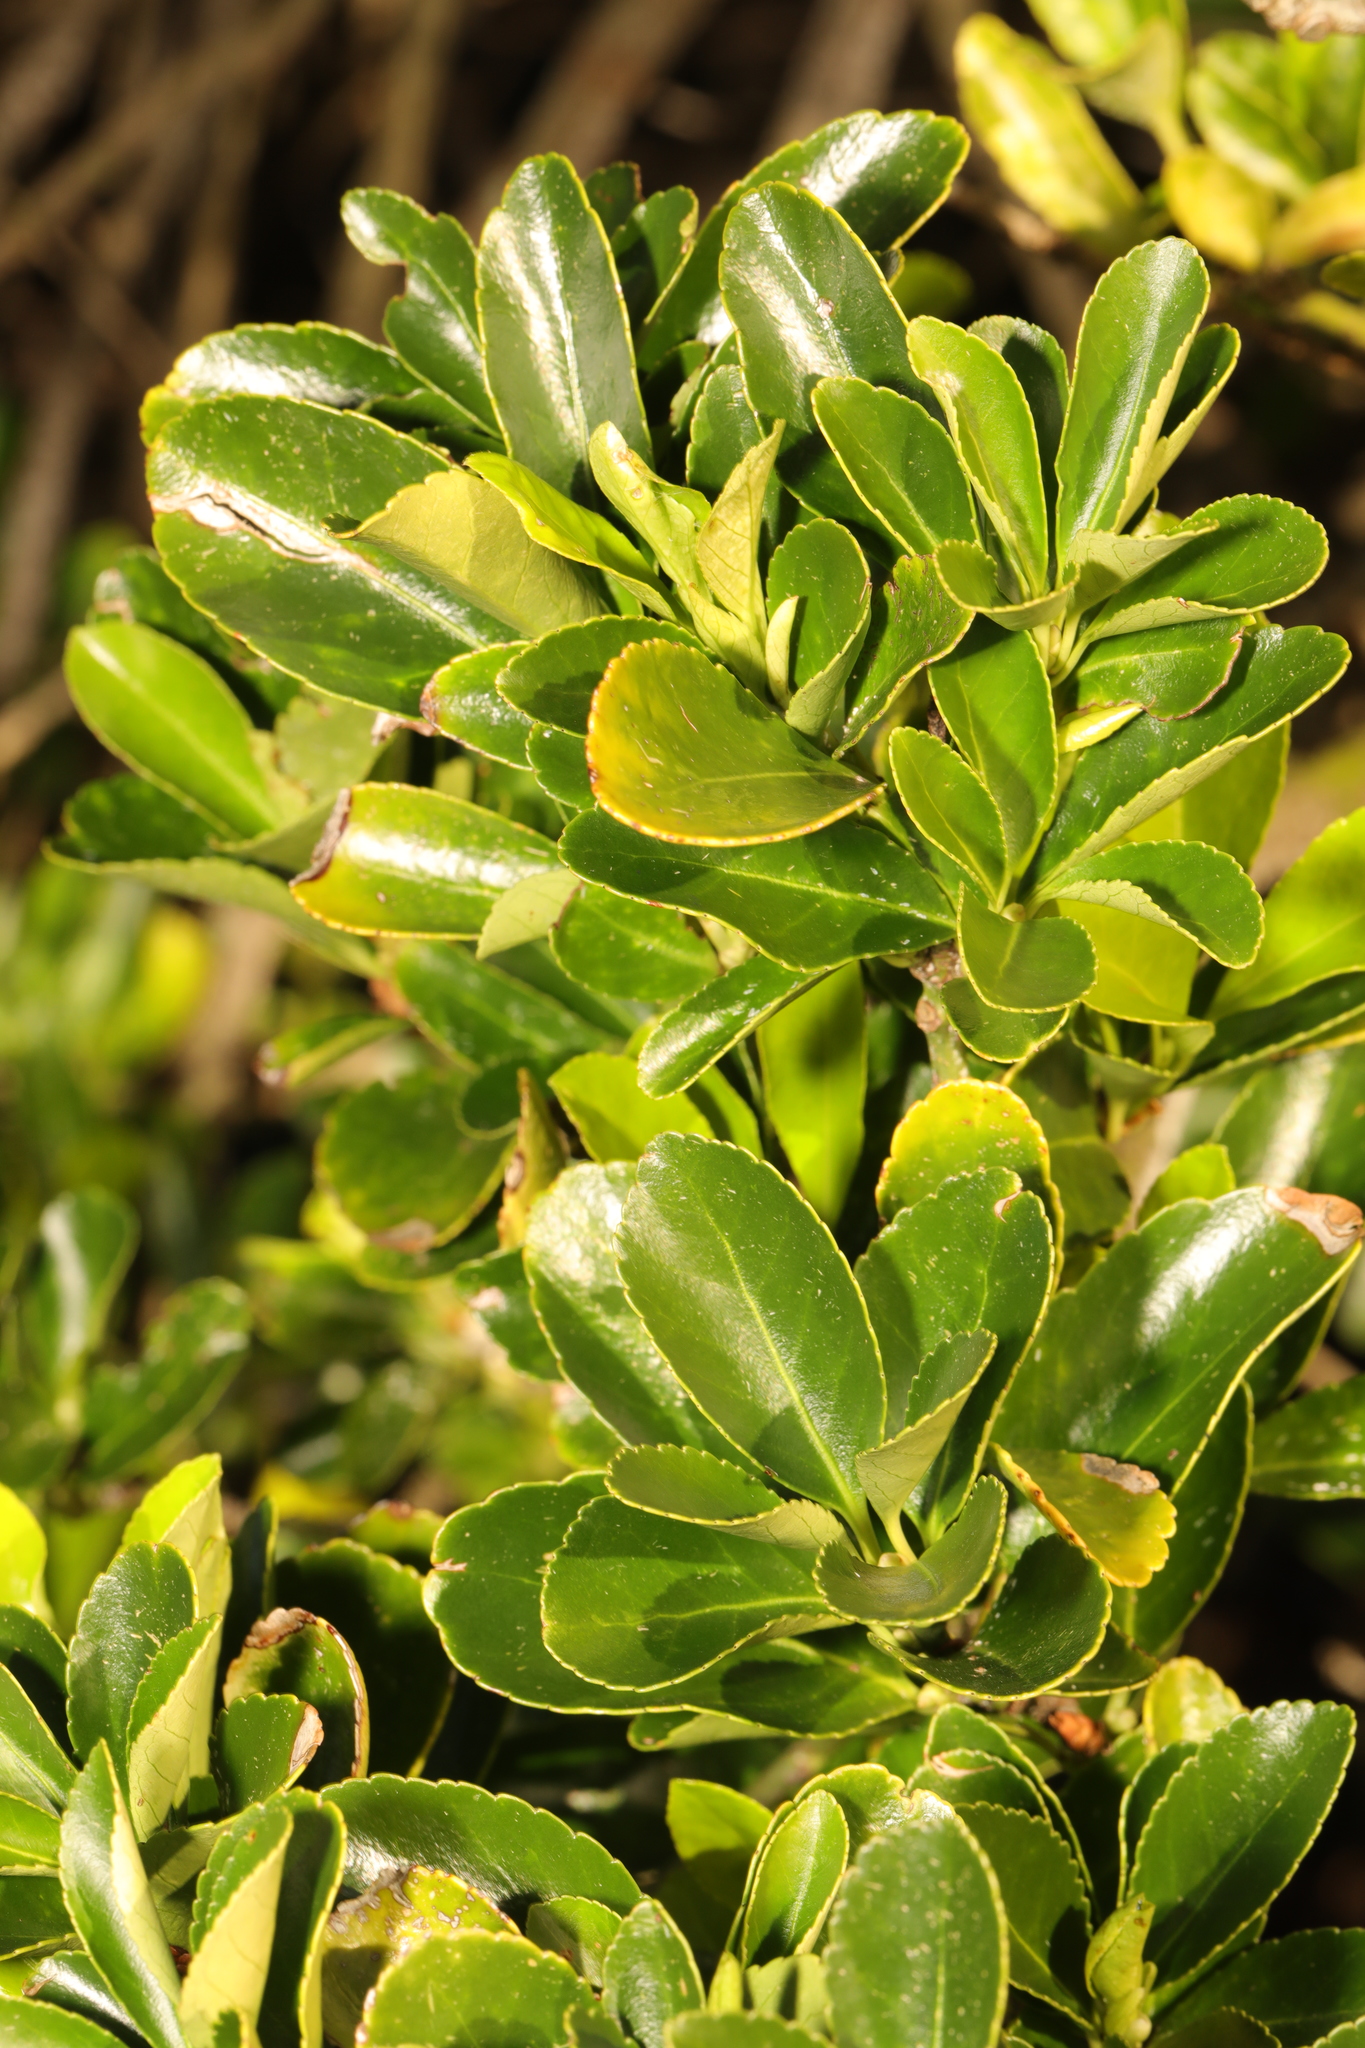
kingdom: Plantae
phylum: Tracheophyta
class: Magnoliopsida
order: Celastrales
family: Celastraceae
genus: Euonymus
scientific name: Euonymus japonicus
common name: Japanese spindletree
